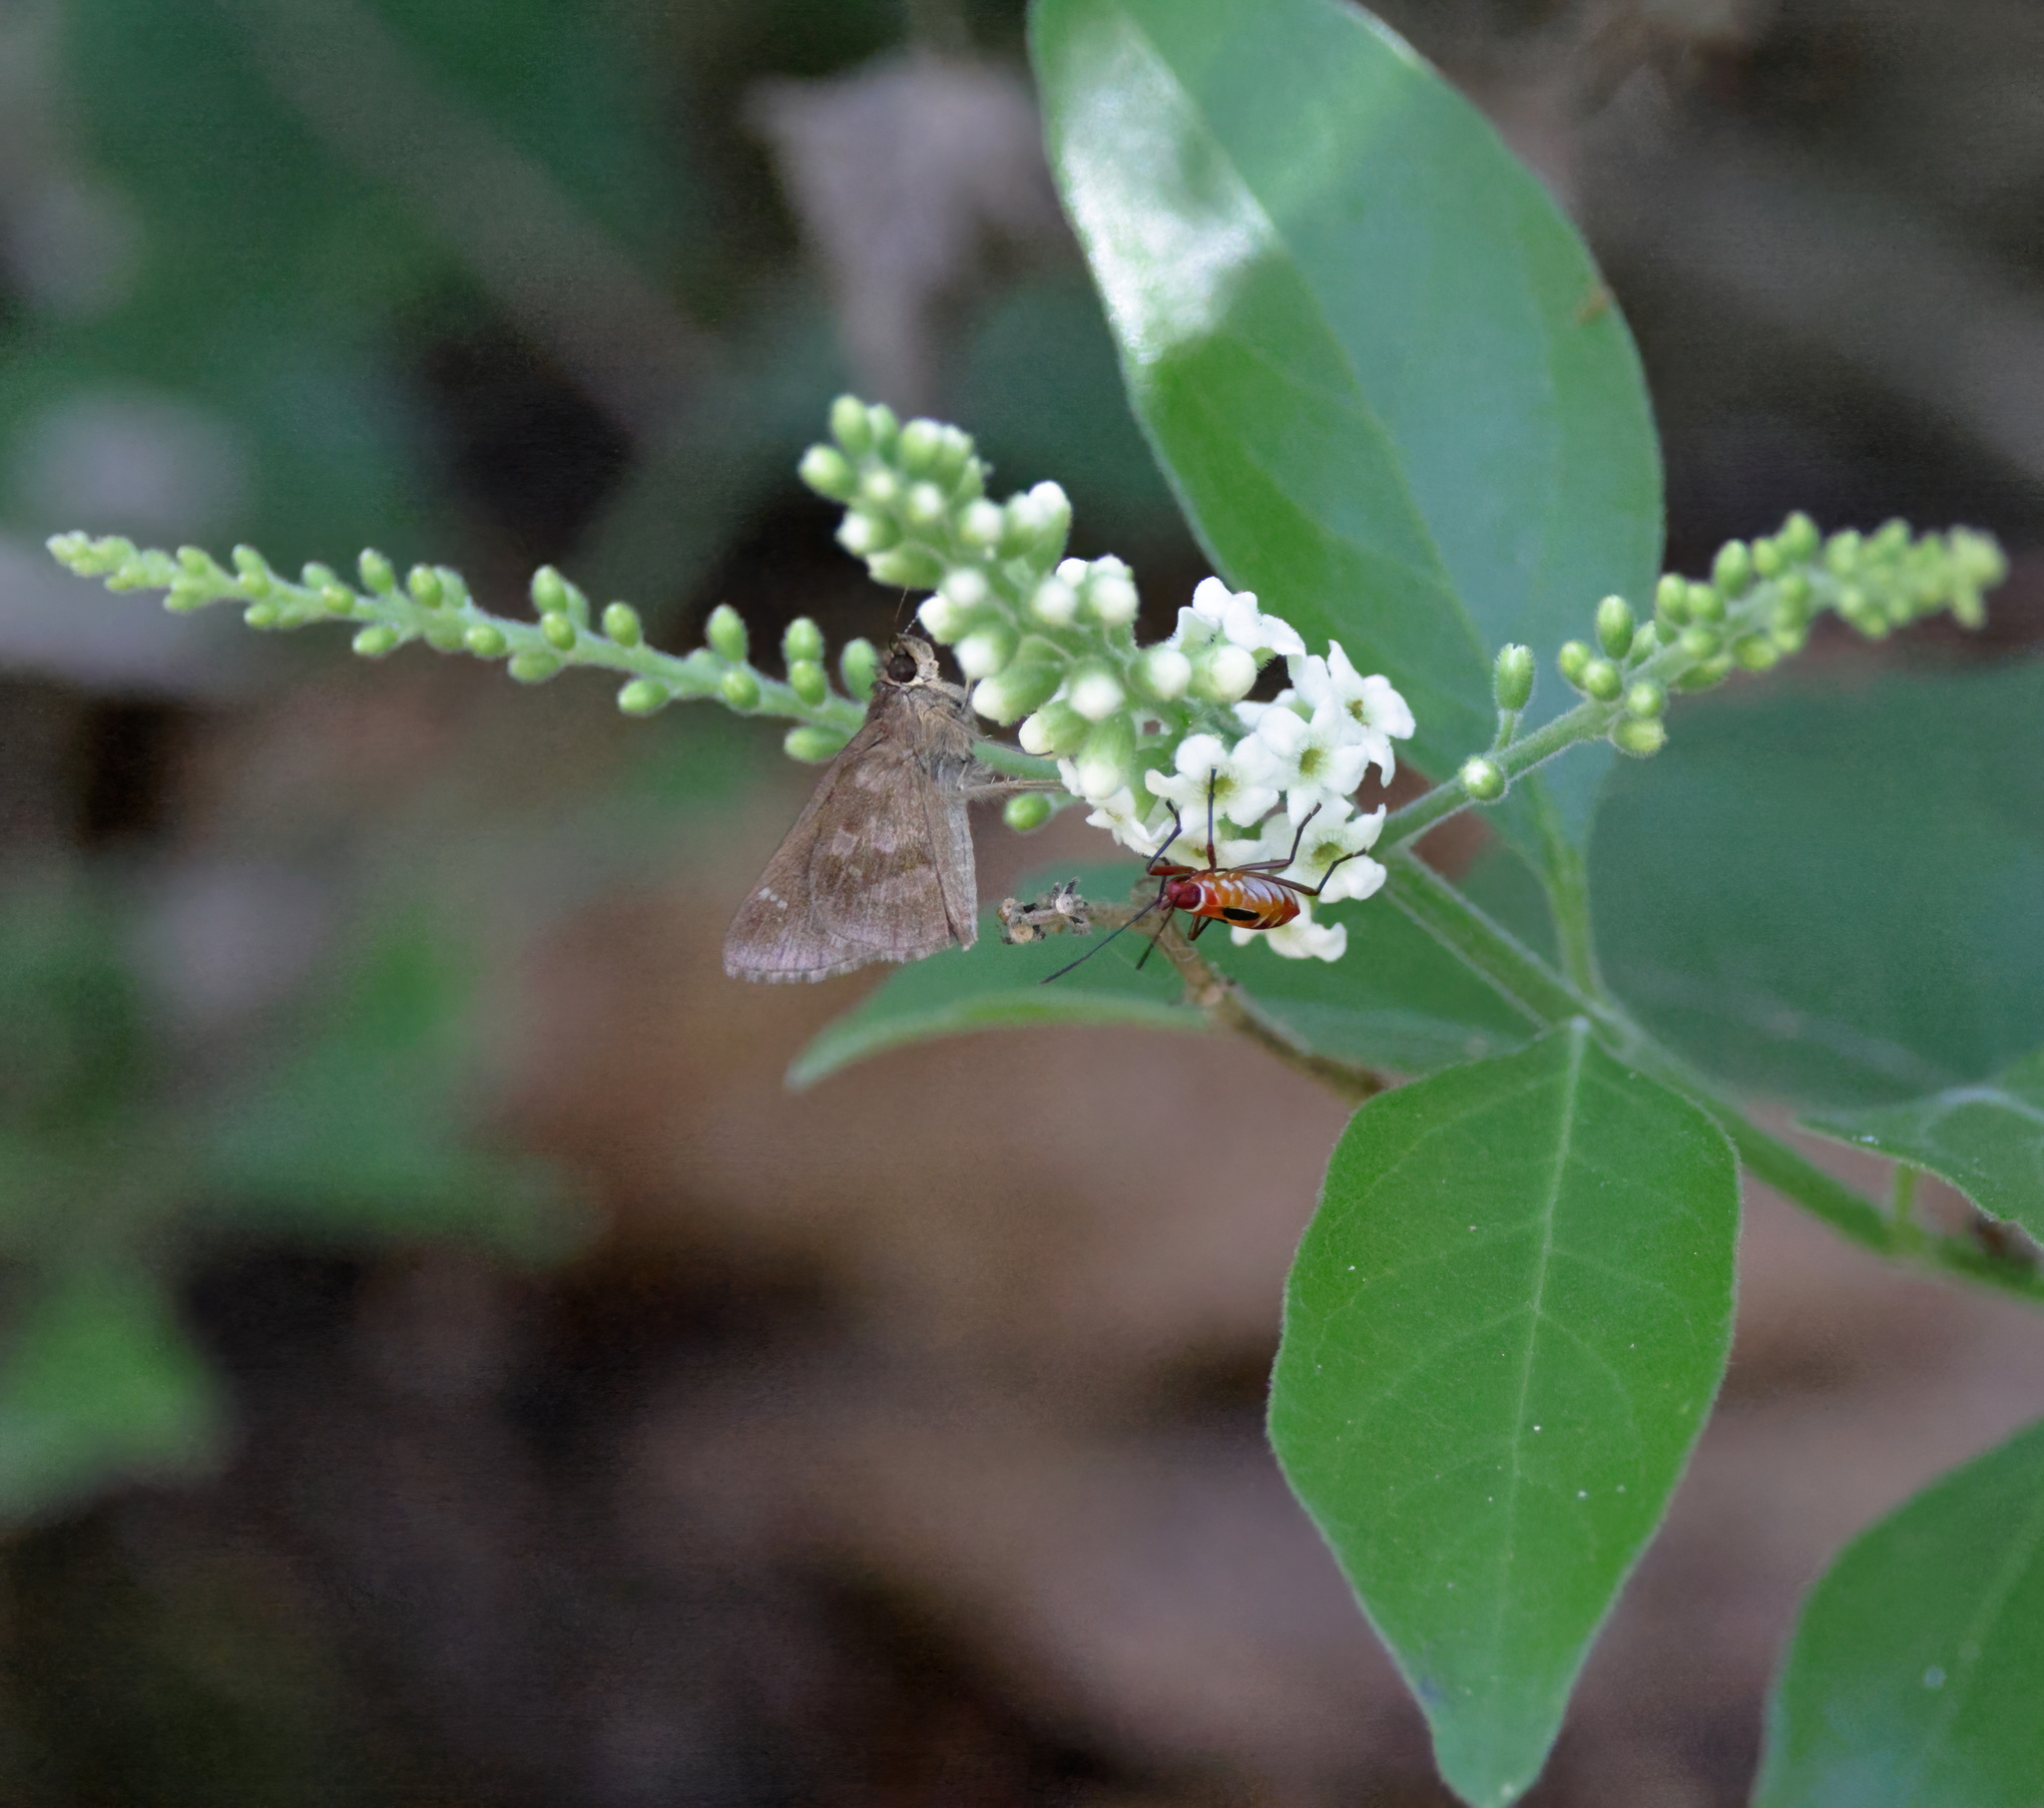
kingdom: Plantae
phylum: Tracheophyta
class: Magnoliopsida
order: Lamiales
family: Verbenaceae
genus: Citharexylum
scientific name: Citharexylum berlandieri
